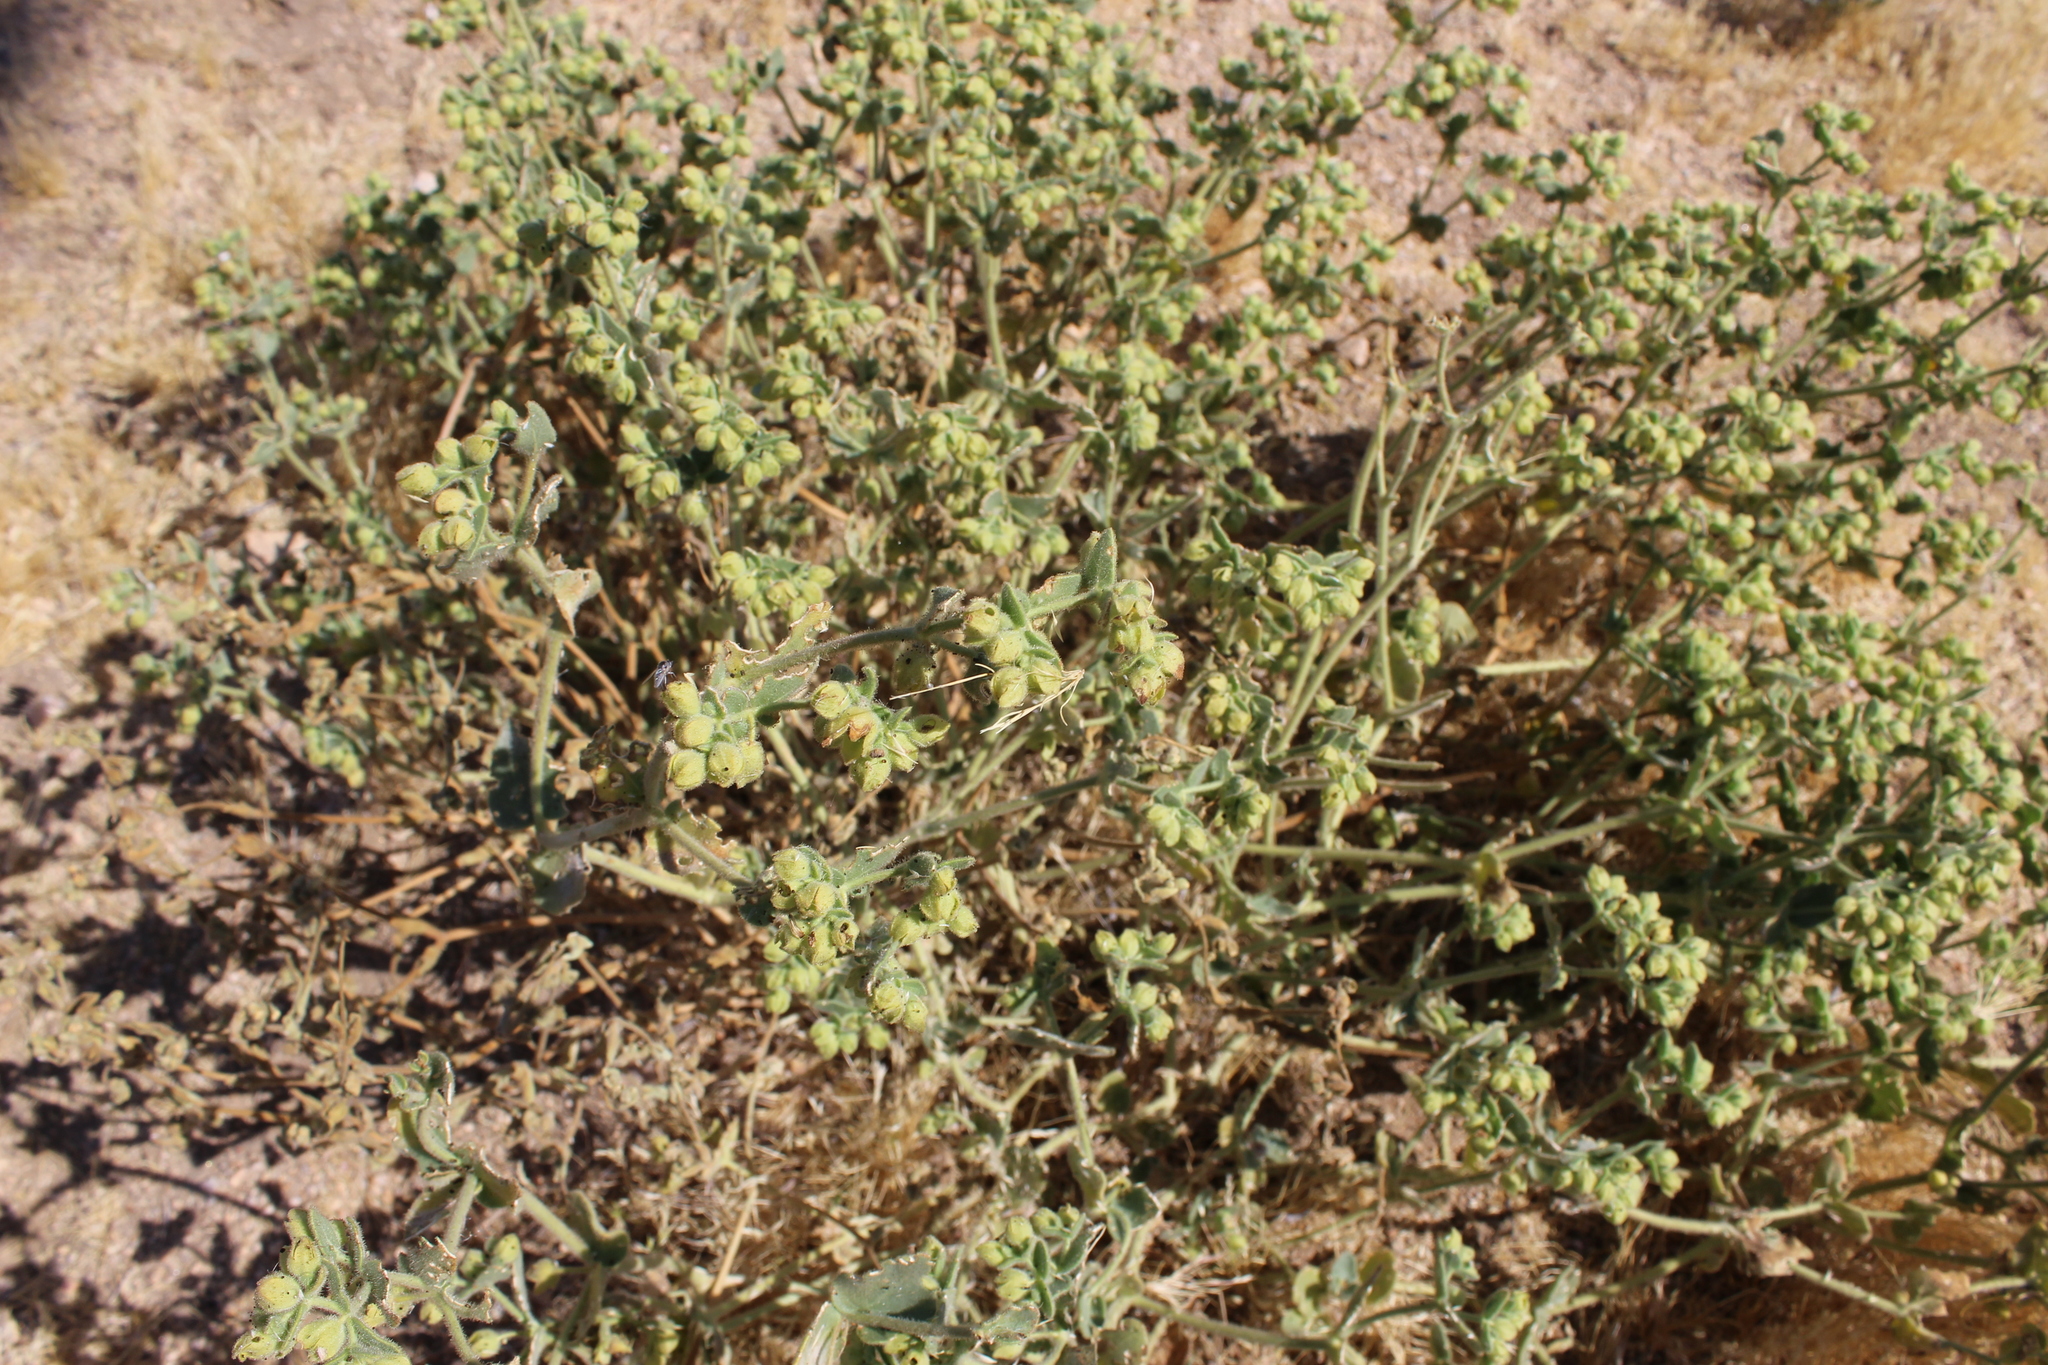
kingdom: Plantae
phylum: Tracheophyta
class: Magnoliopsida
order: Caryophyllales
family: Nyctaginaceae
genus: Mirabilis
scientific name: Mirabilis laevis
